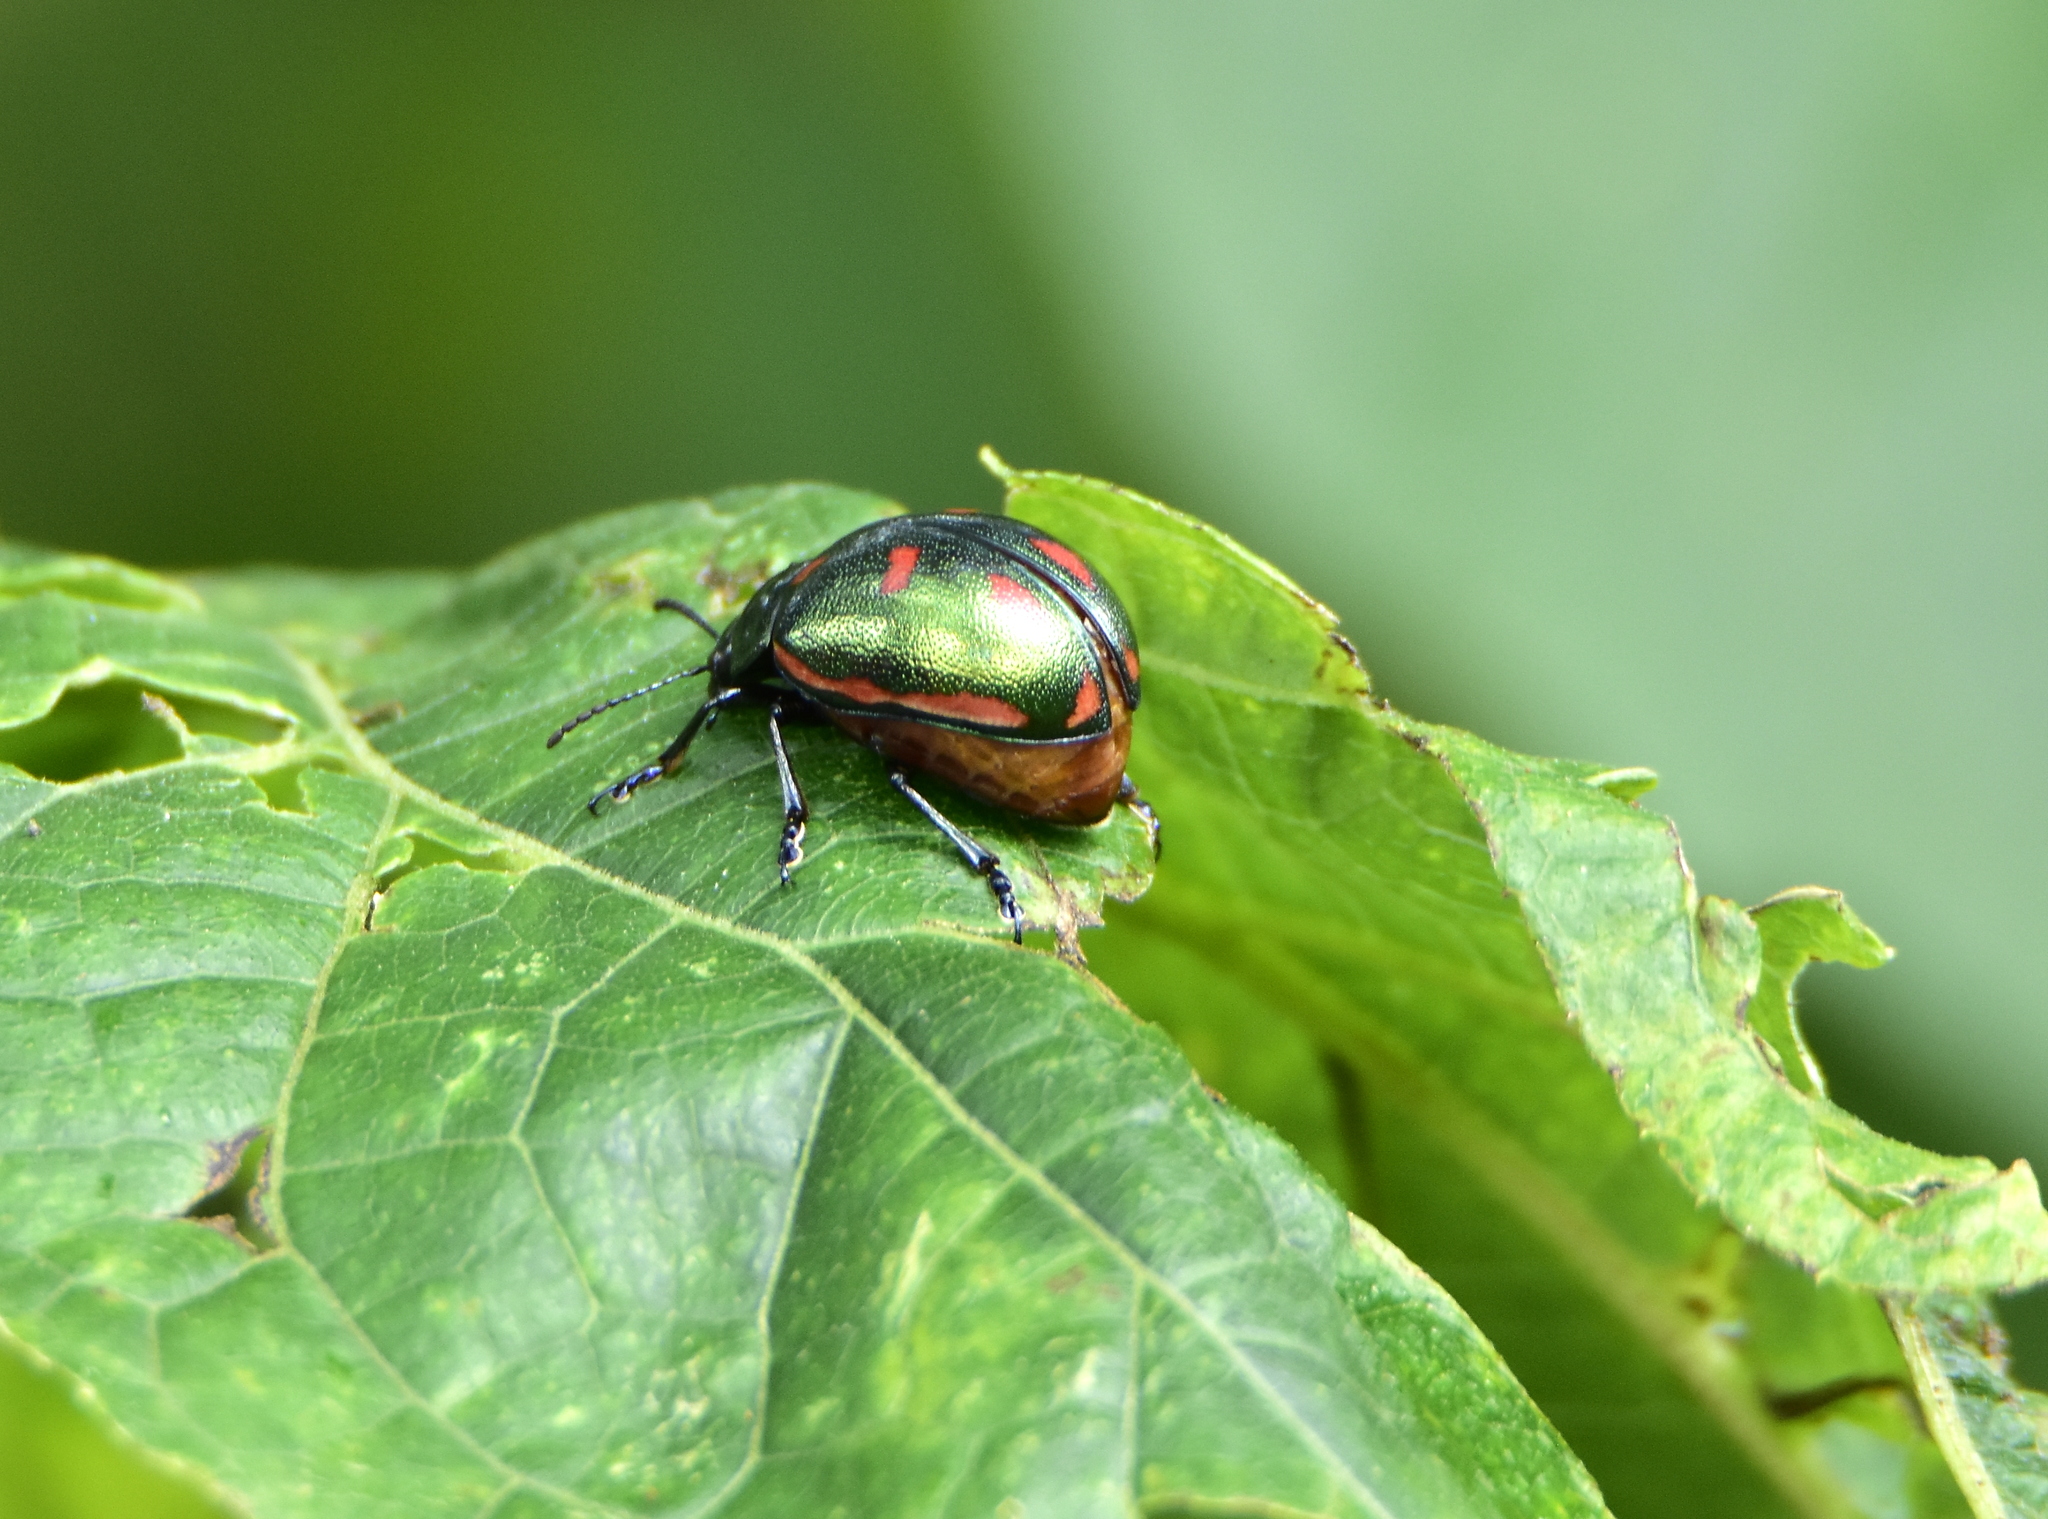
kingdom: Animalia
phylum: Arthropoda
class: Insecta
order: Coleoptera
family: Chrysomelidae
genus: Leptinotarsa
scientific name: Leptinotarsa behrensi
